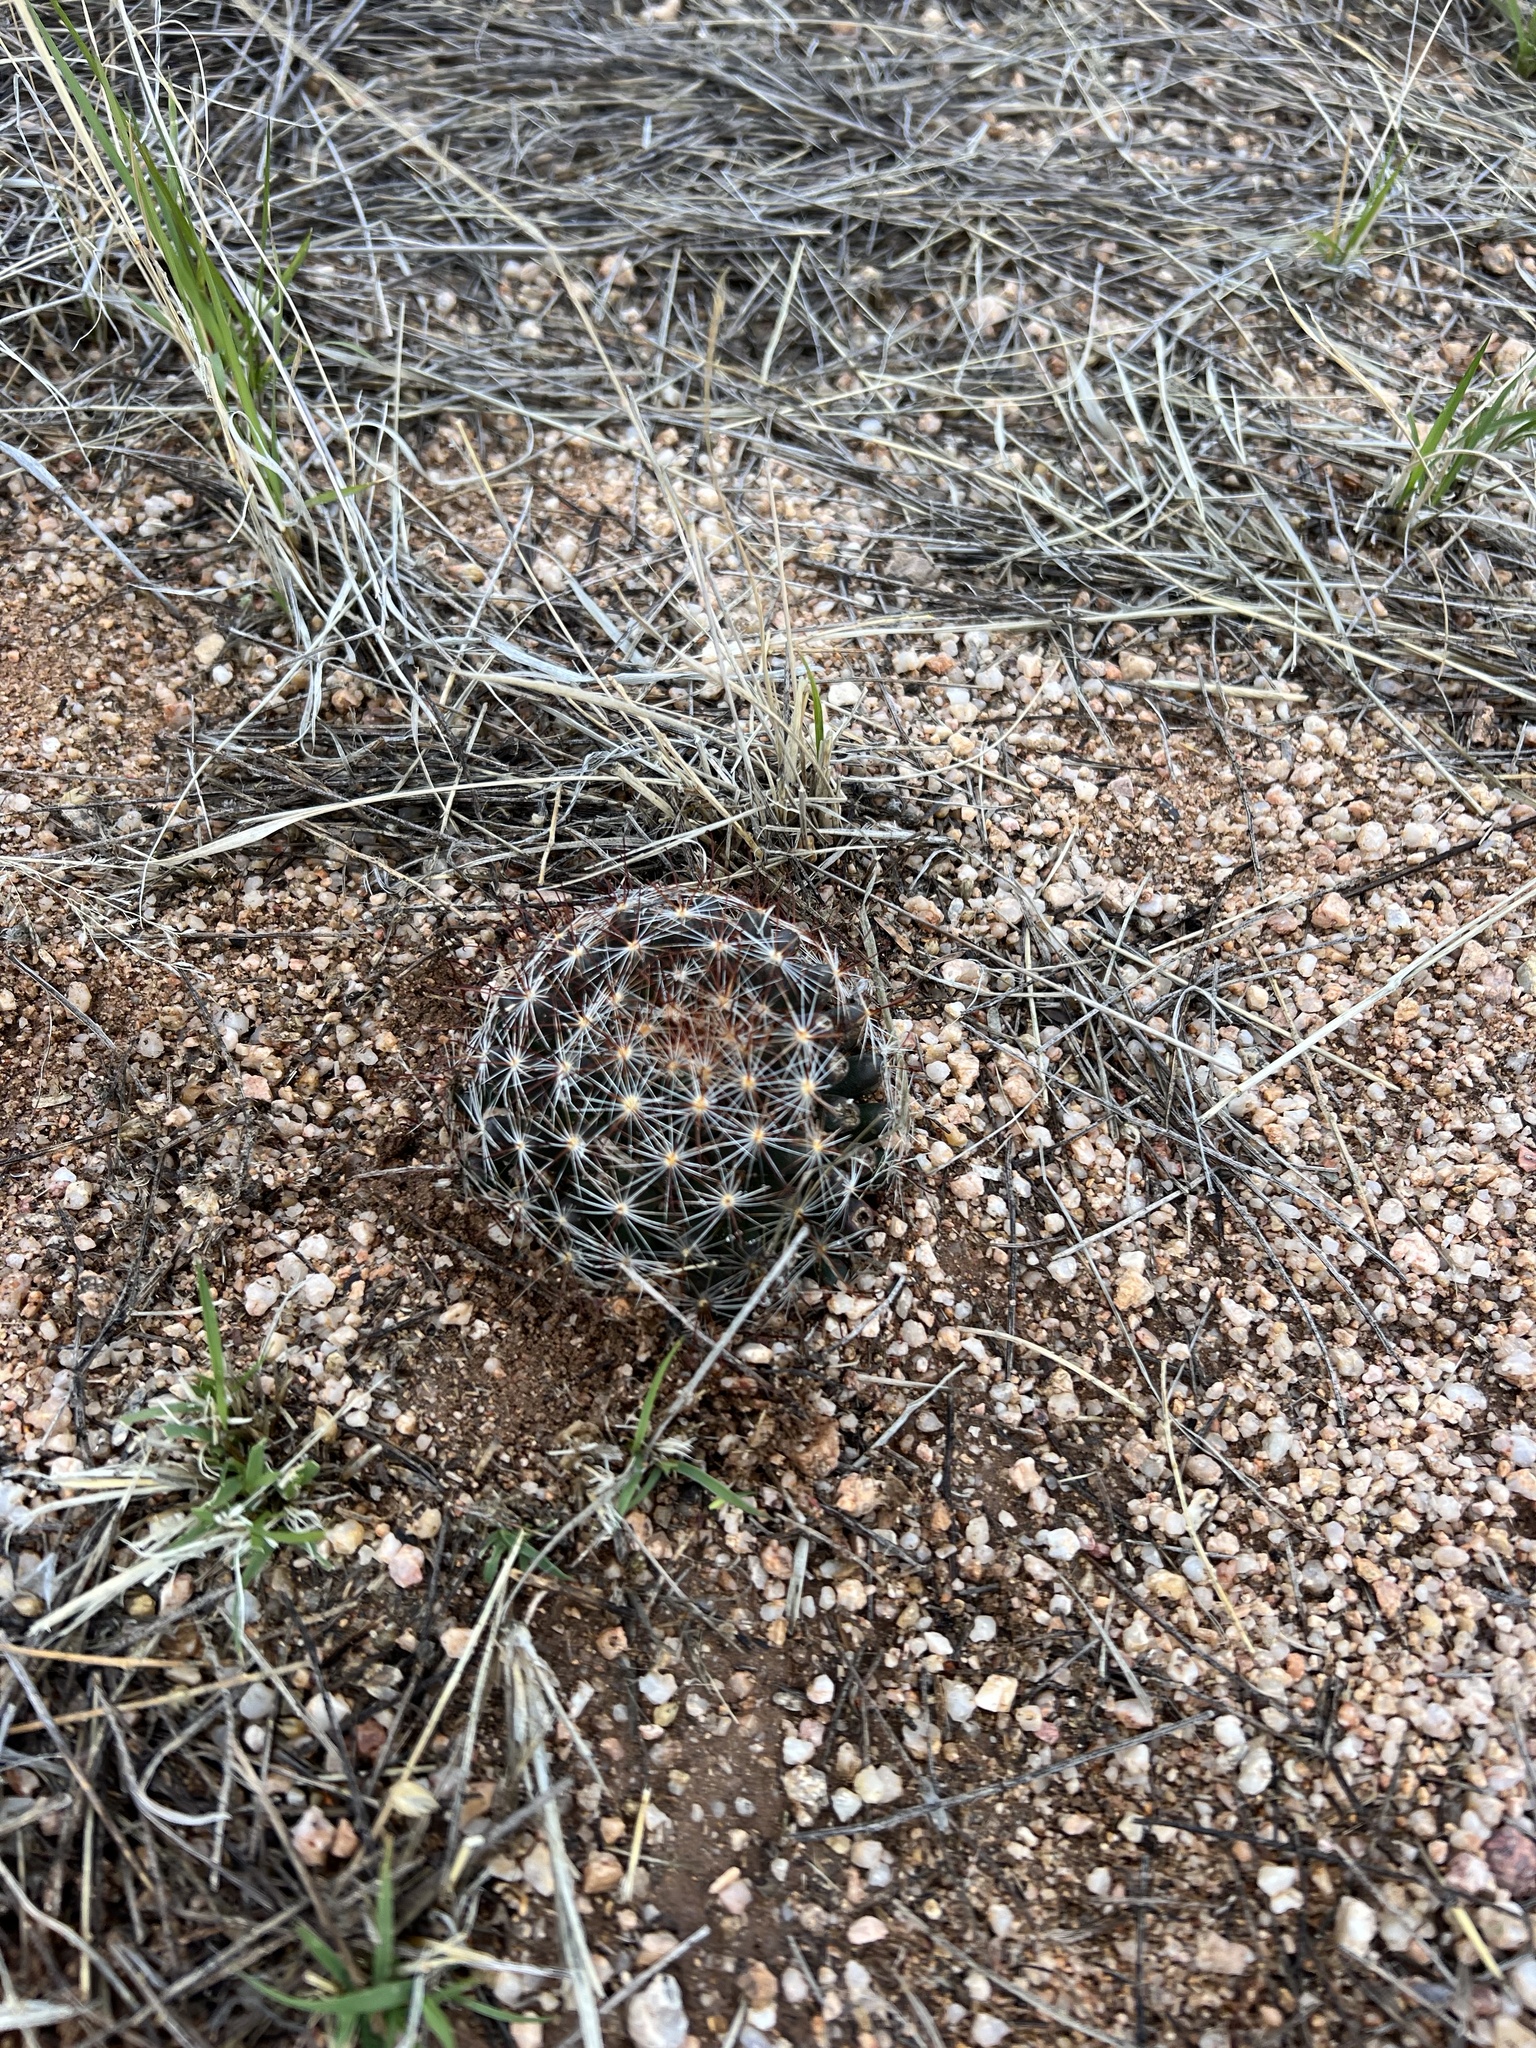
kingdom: Plantae
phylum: Tracheophyta
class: Magnoliopsida
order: Caryophyllales
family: Cactaceae
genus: Cochemiea
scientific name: Cochemiea wrightii
